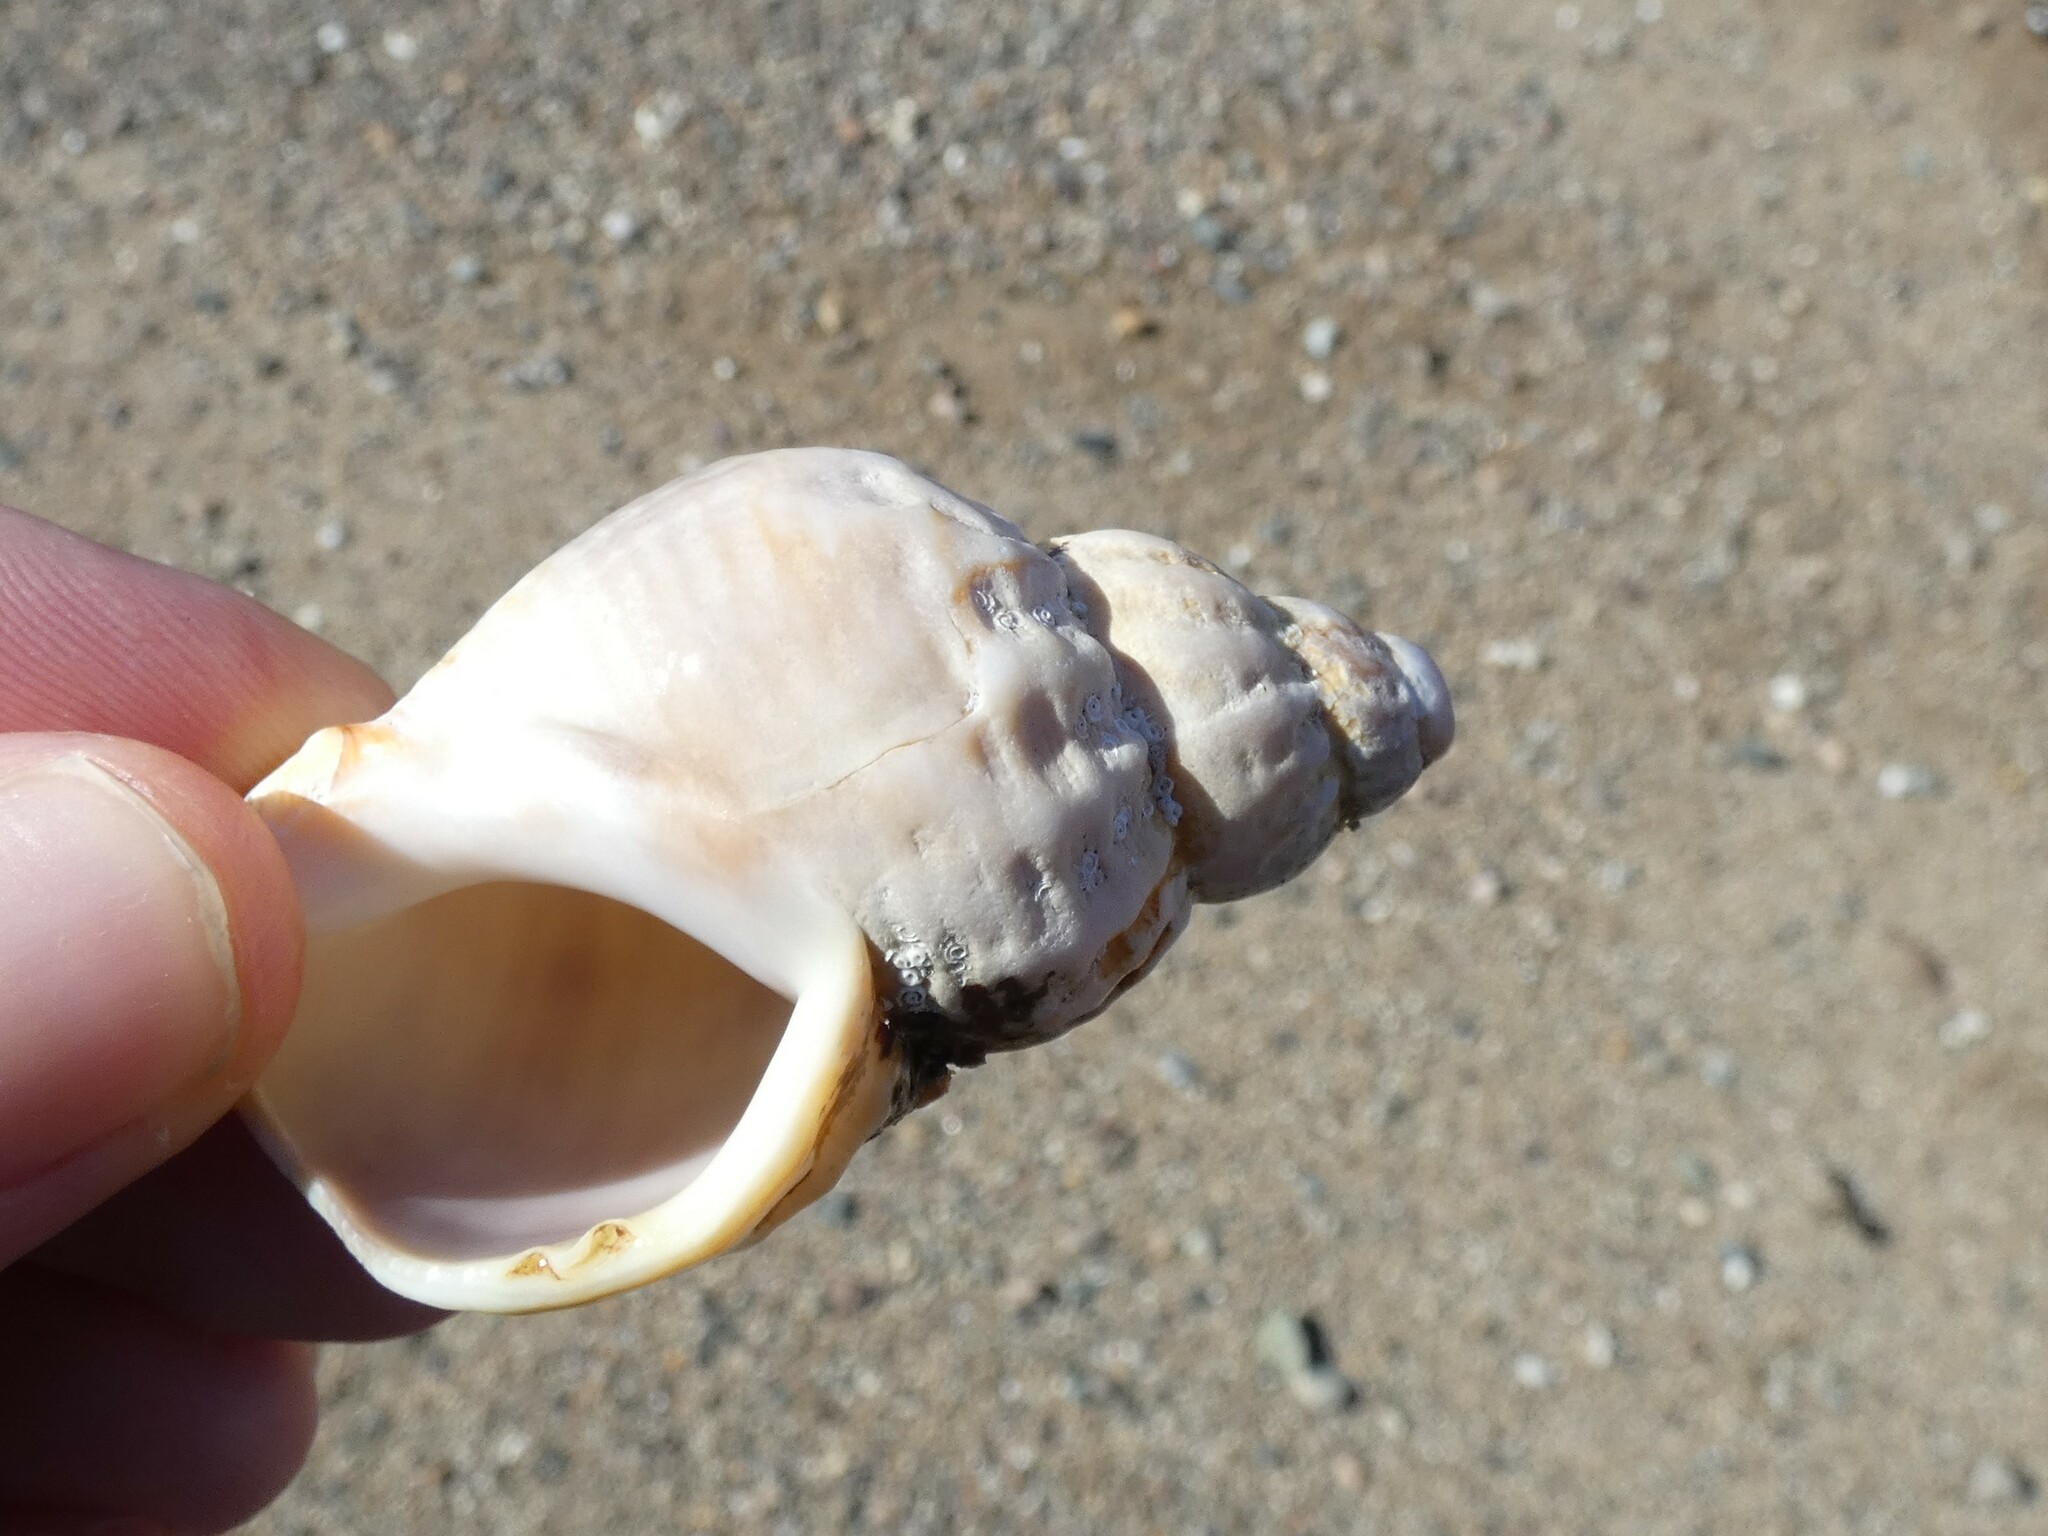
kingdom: Animalia
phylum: Mollusca
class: Gastropoda
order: Neogastropoda
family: Buccinidae
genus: Buccinum
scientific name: Buccinum undatum
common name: Common whelk
